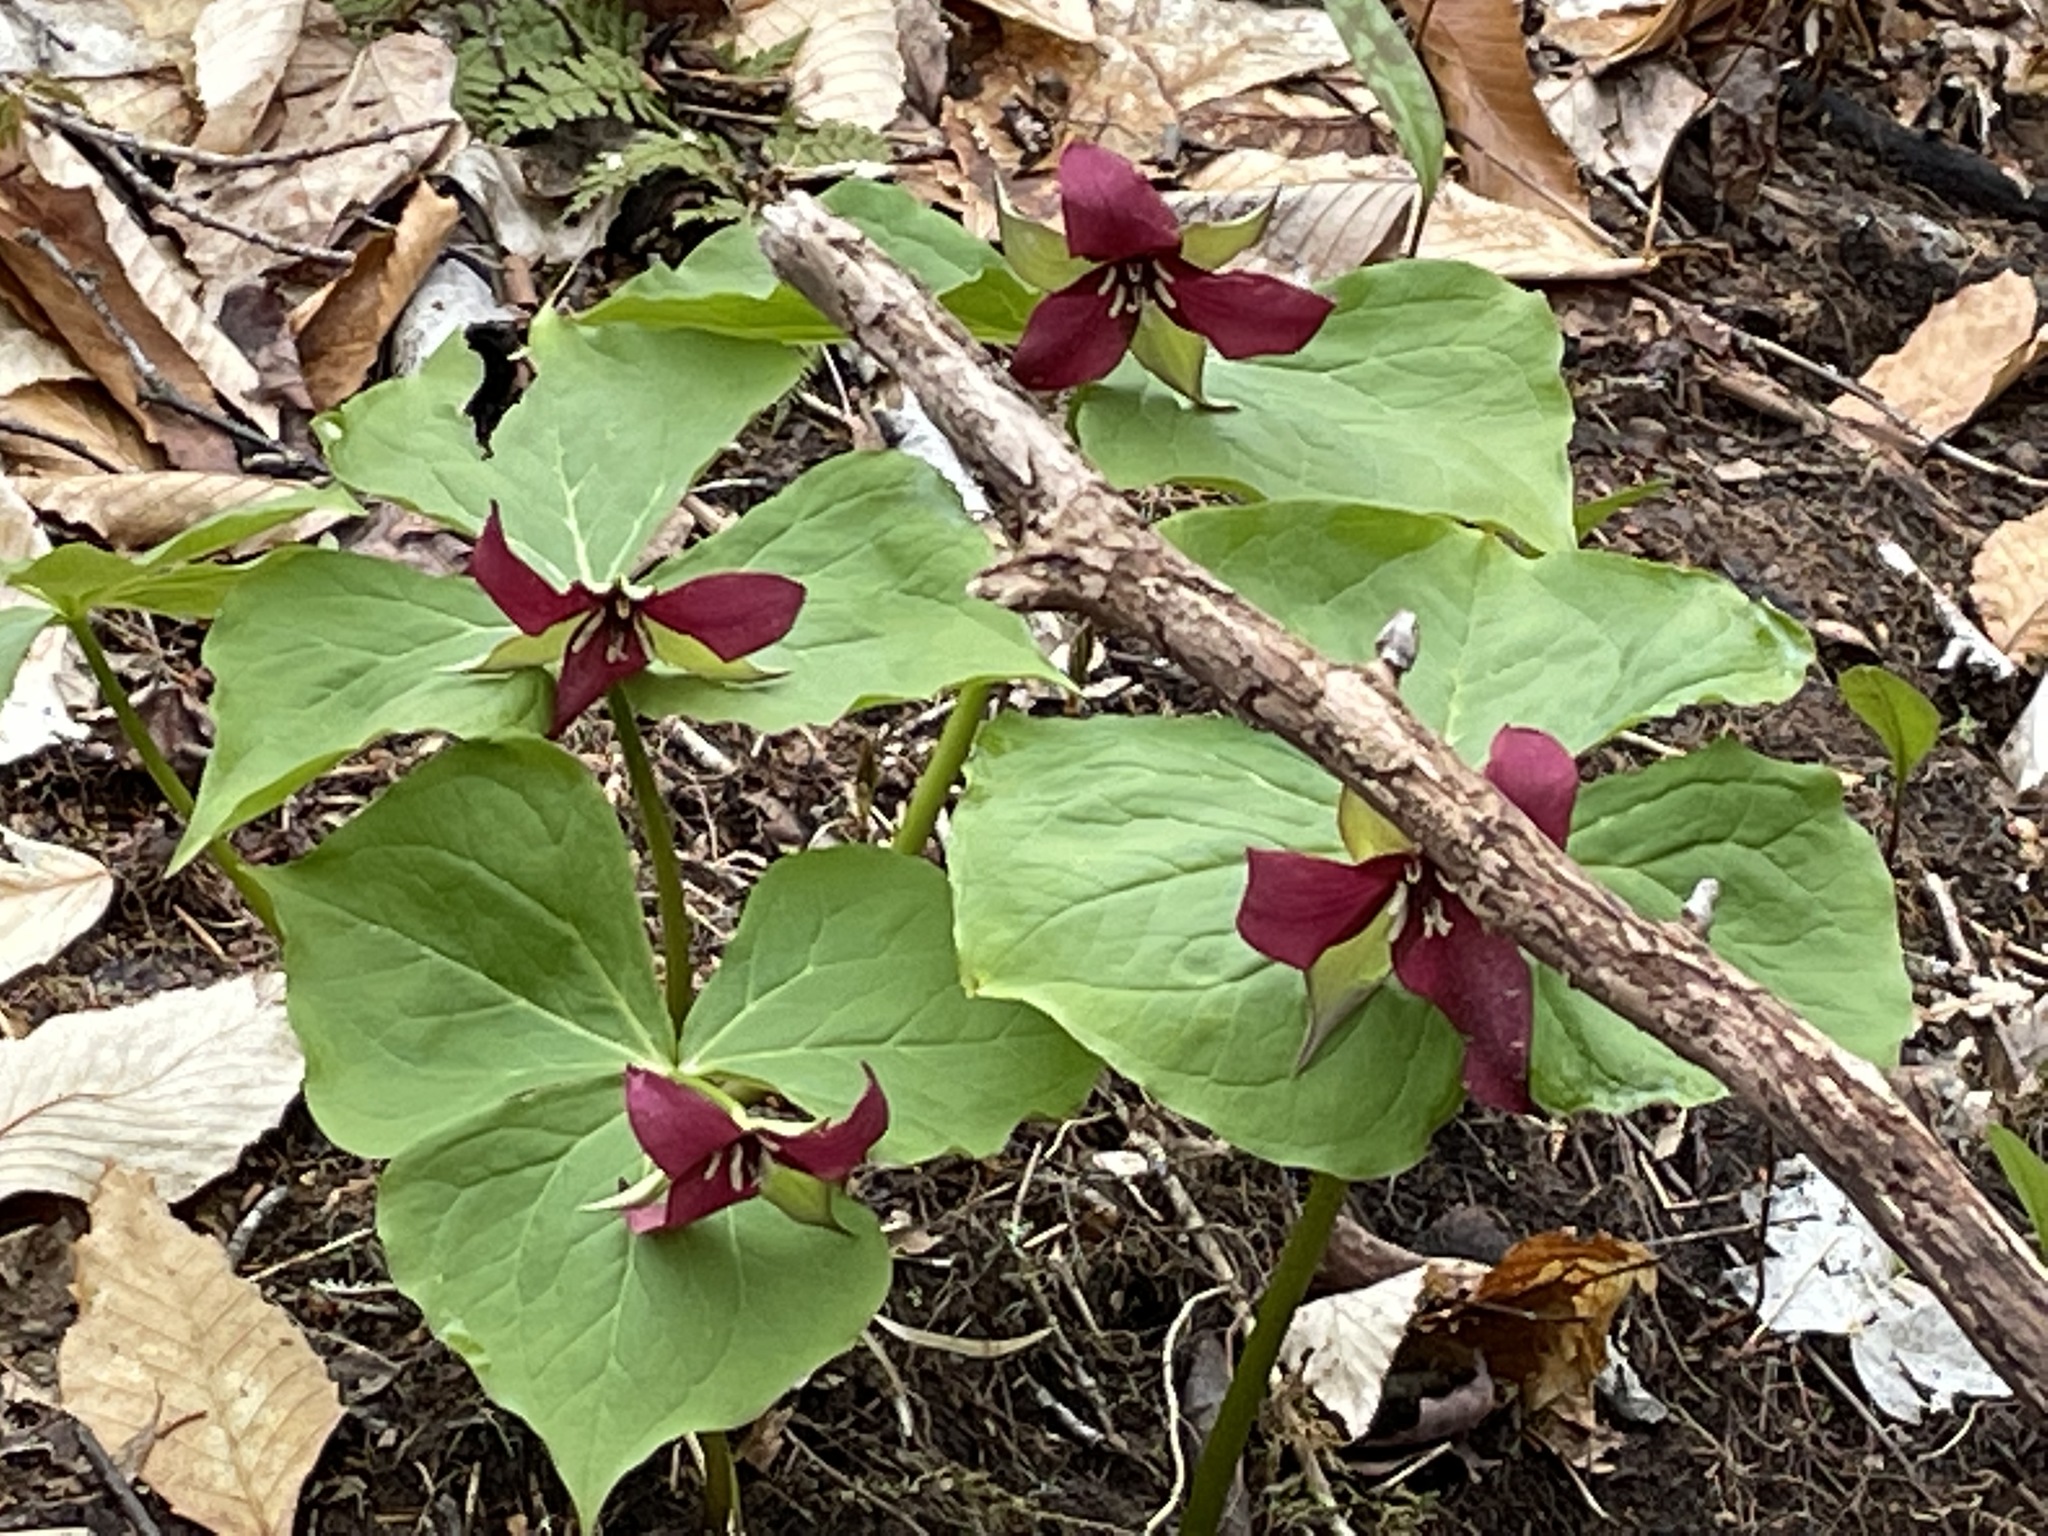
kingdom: Plantae
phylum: Tracheophyta
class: Liliopsida
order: Liliales
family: Melanthiaceae
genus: Trillium
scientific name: Trillium erectum
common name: Purple trillium
